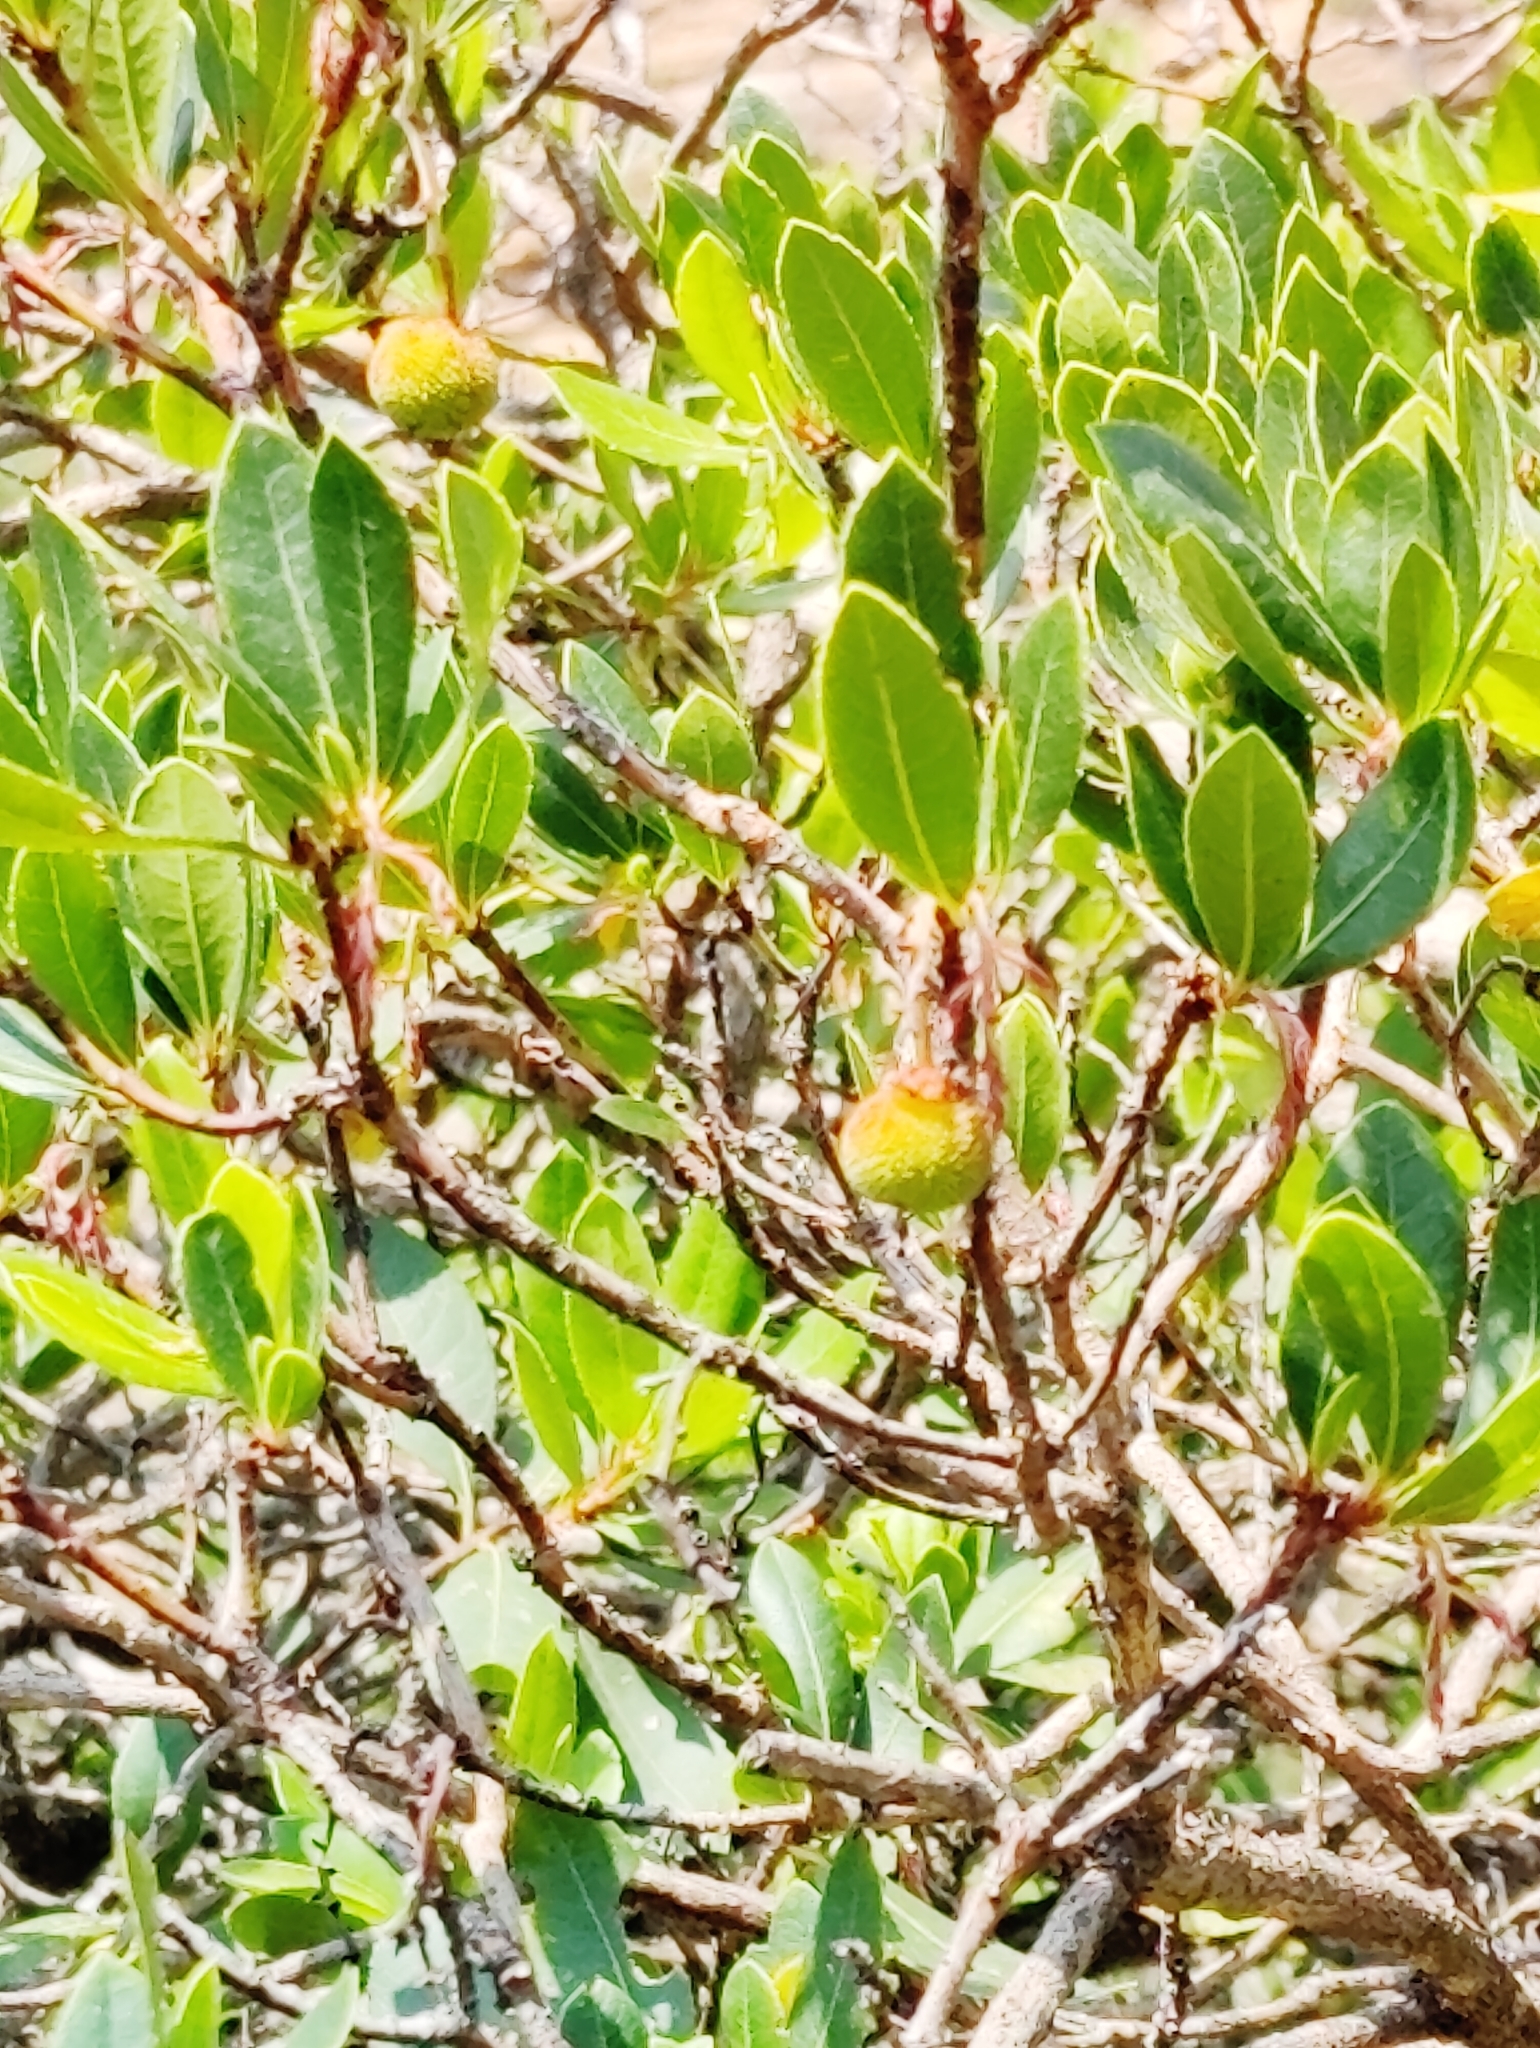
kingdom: Plantae
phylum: Tracheophyta
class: Magnoliopsida
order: Ericales
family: Ericaceae
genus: Arbutus
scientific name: Arbutus unedo
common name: Strawberry-tree
